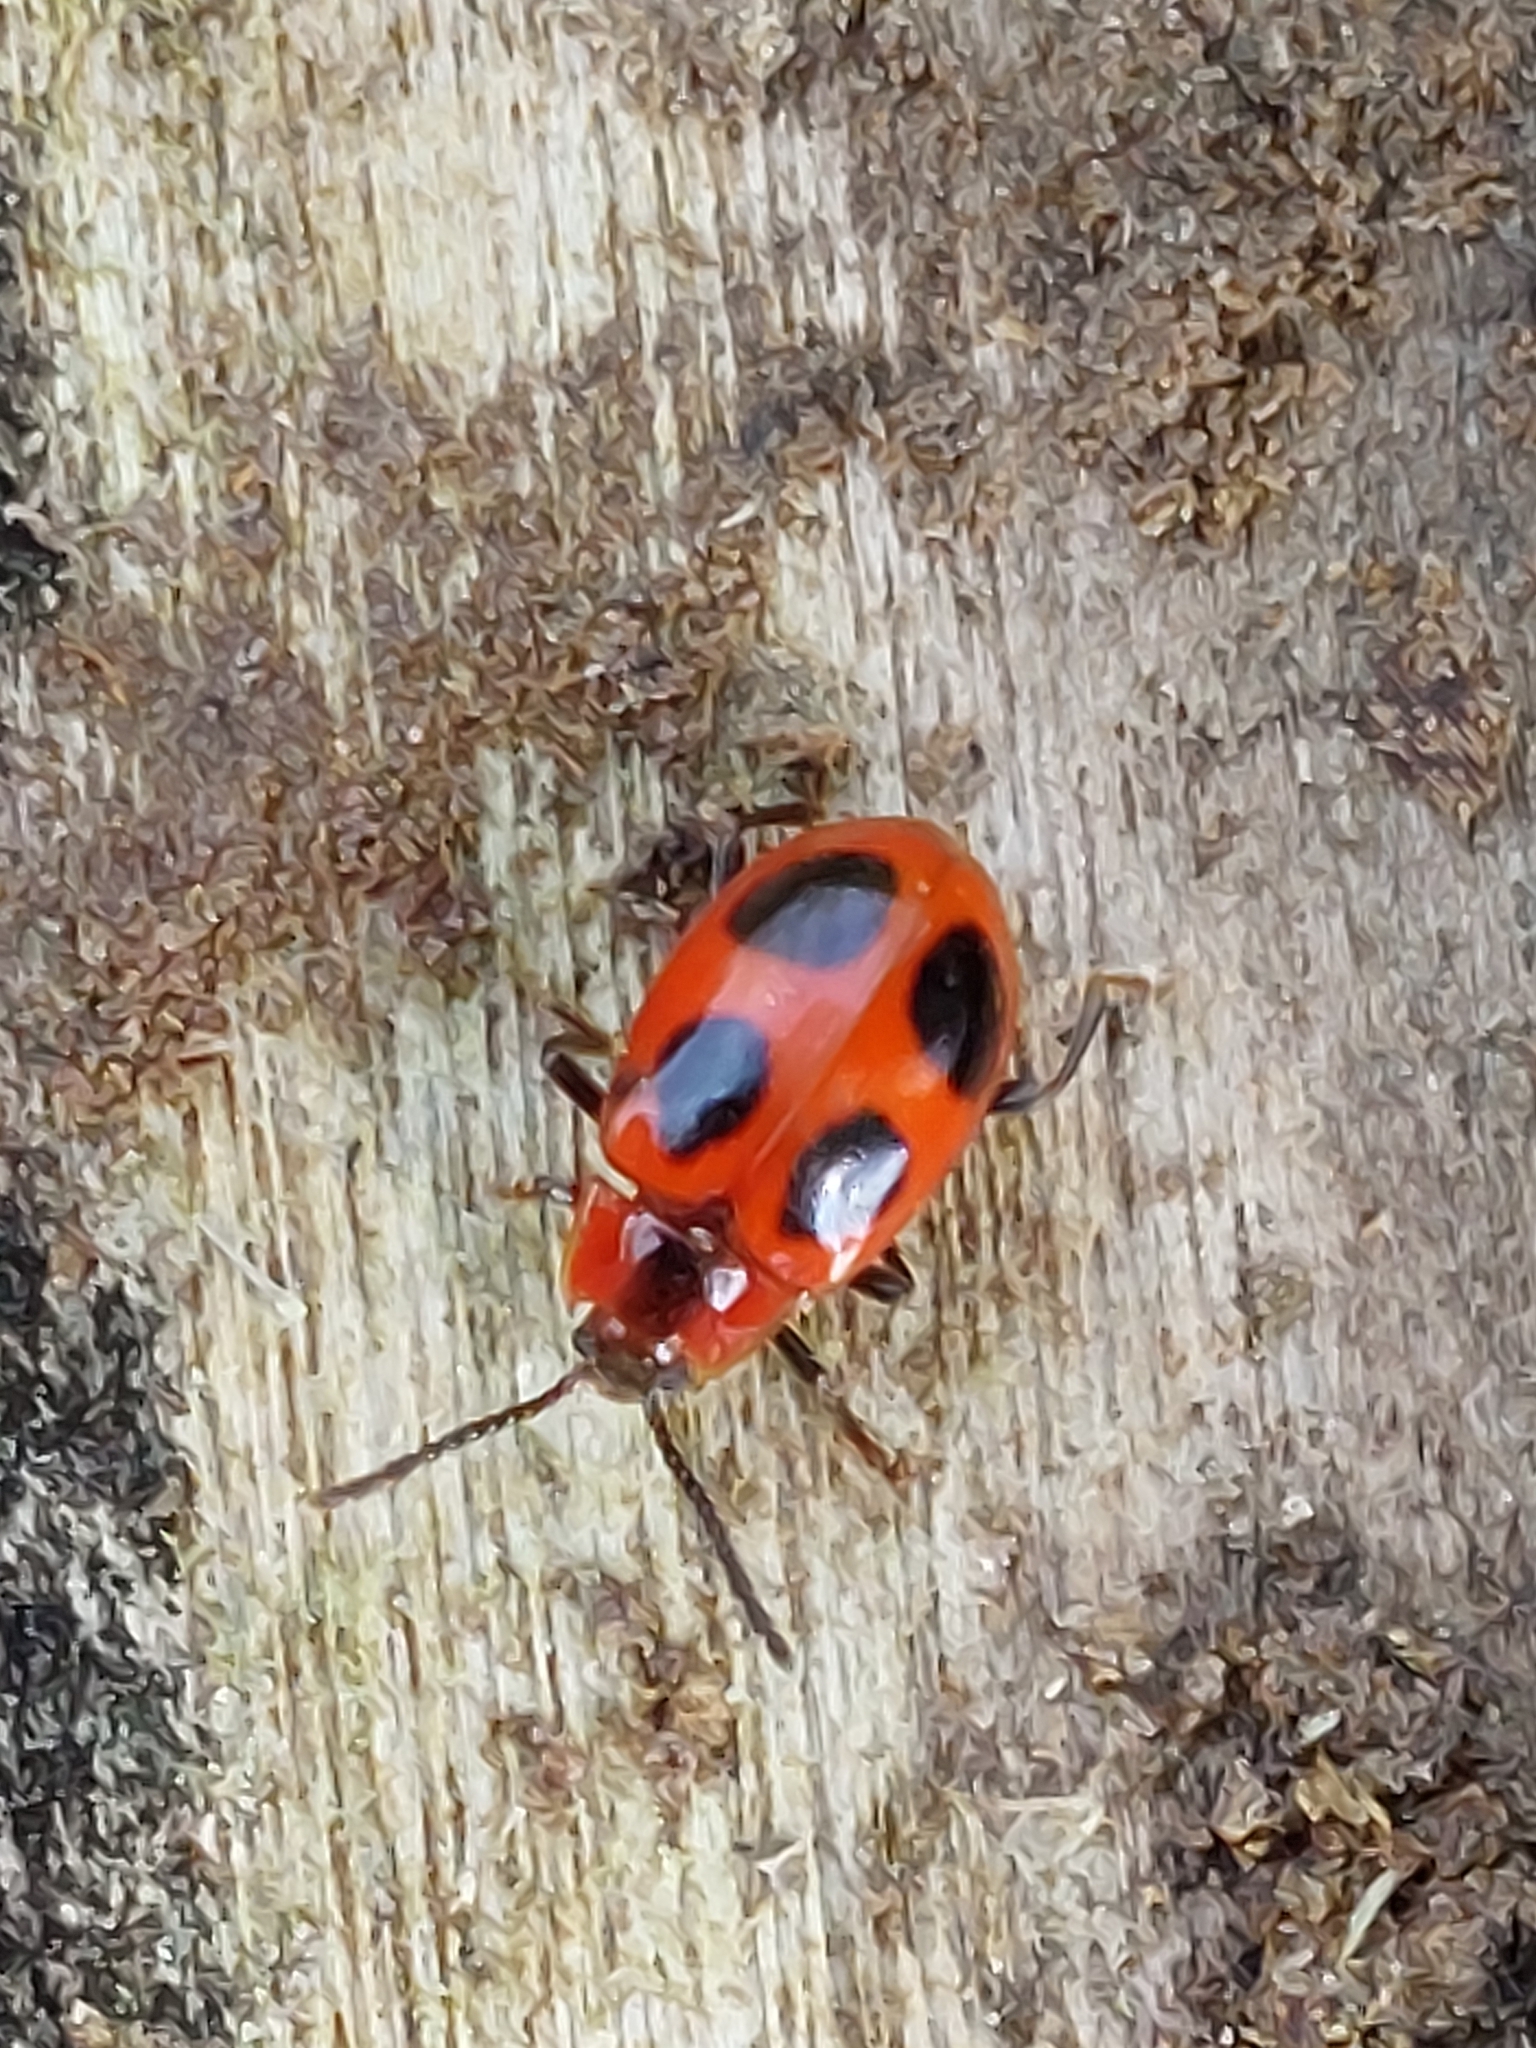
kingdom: Animalia
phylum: Arthropoda
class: Insecta
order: Coleoptera
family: Endomychidae
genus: Endomychus
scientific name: Endomychus coccineus
